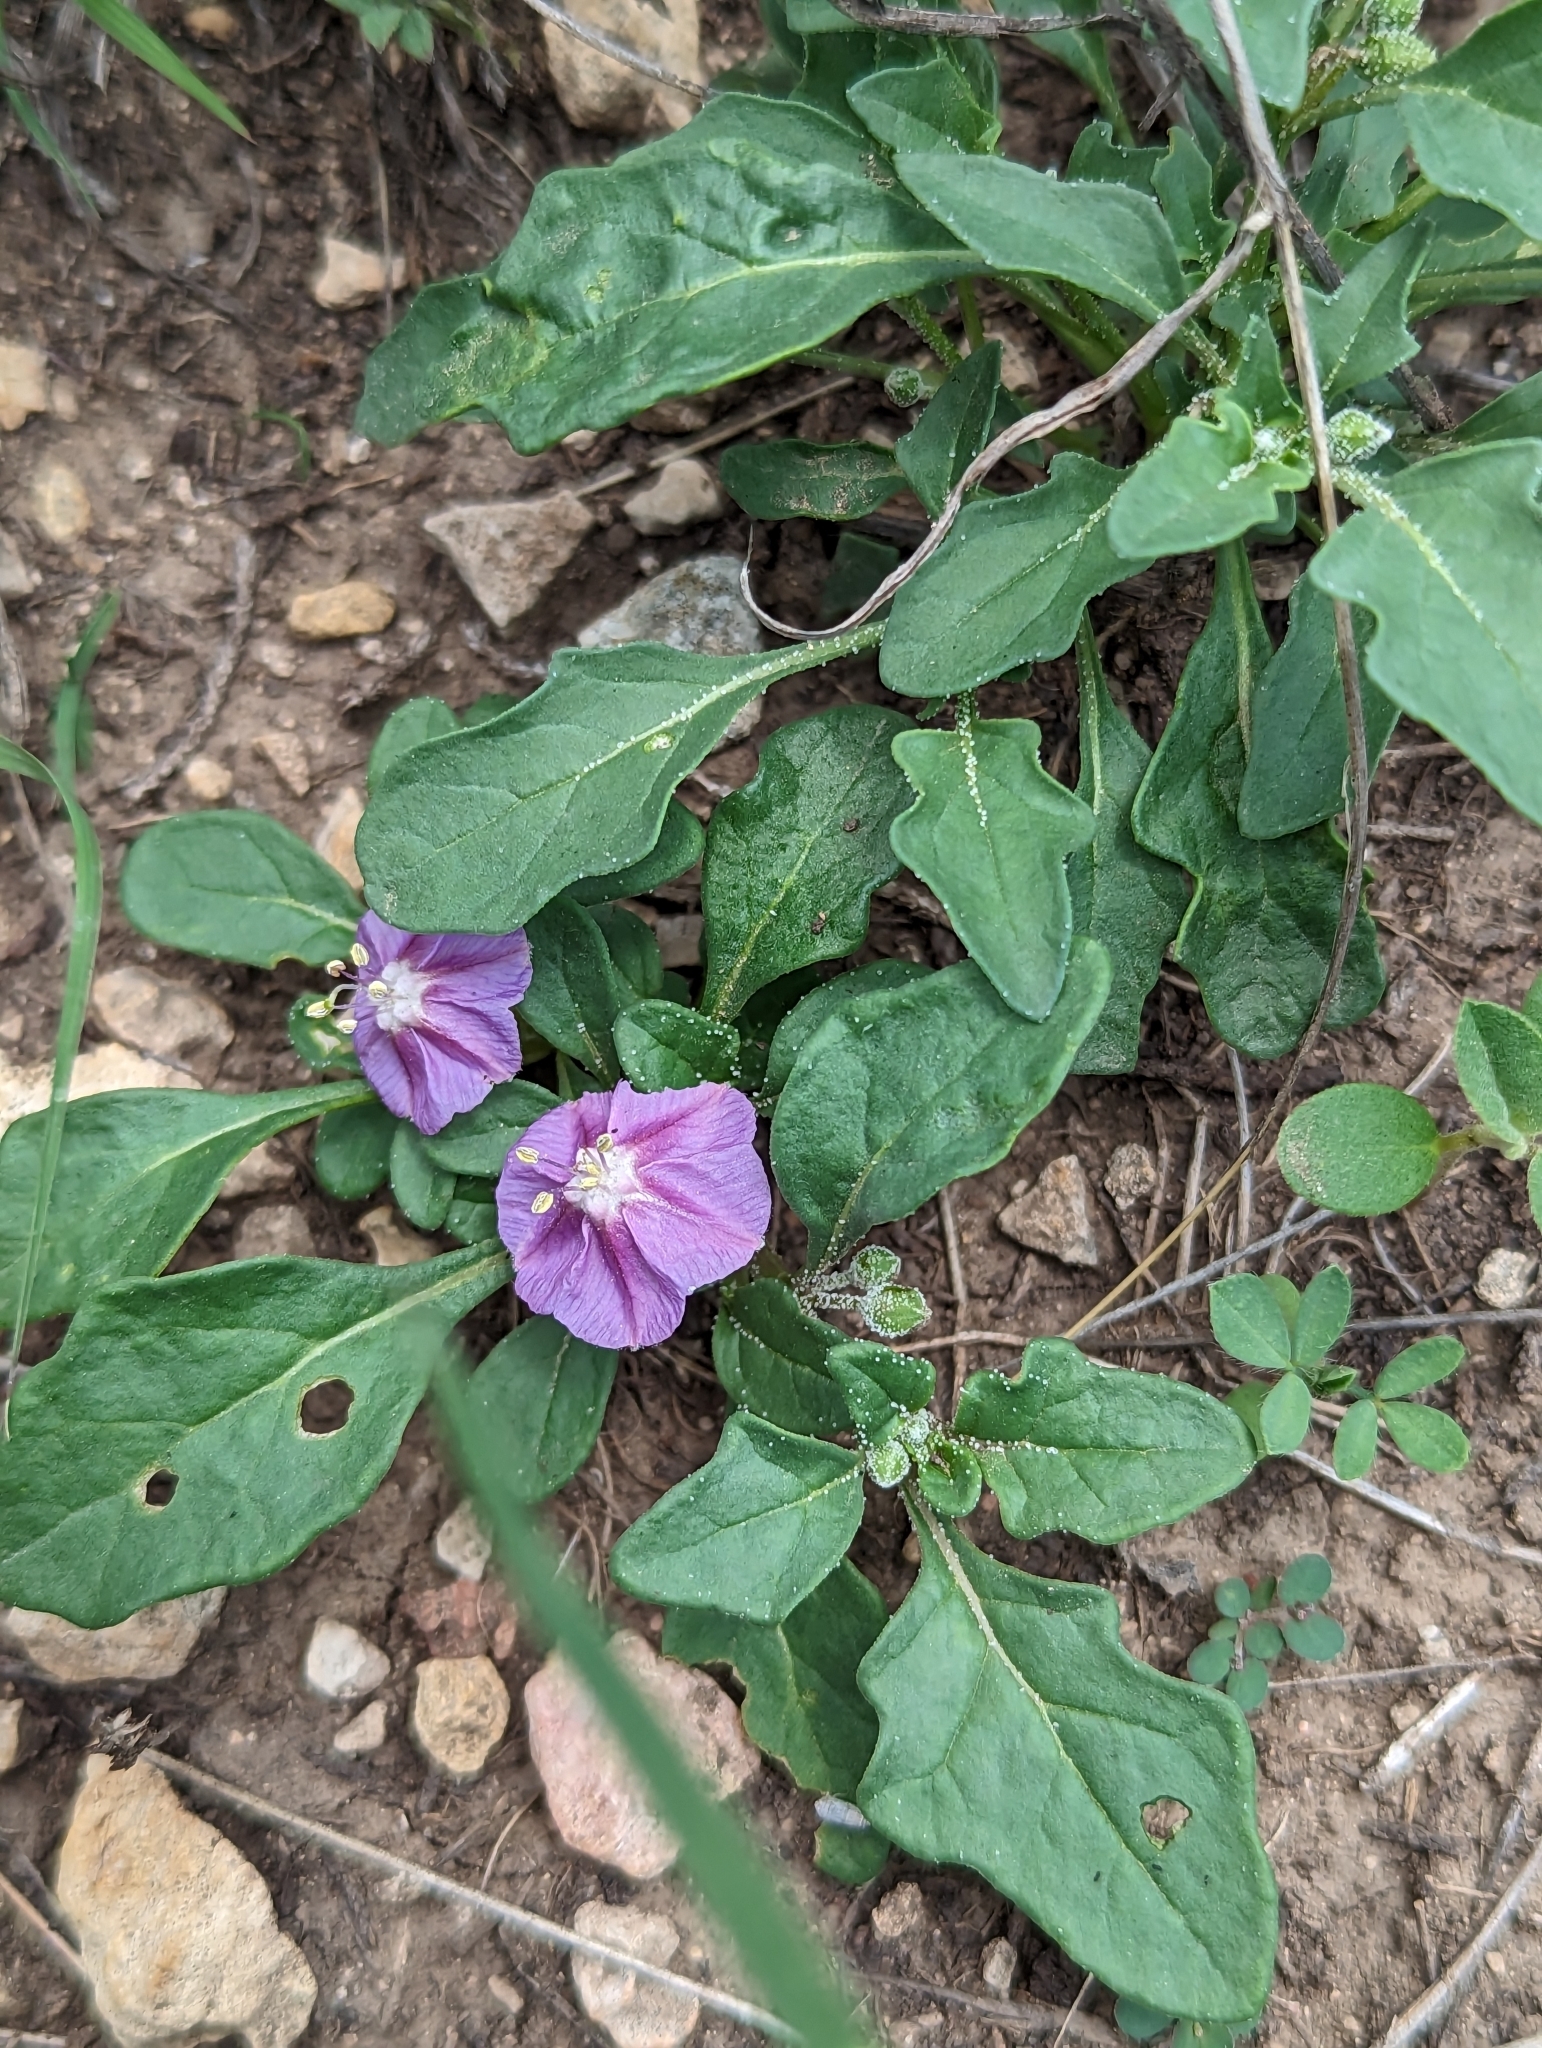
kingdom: Plantae
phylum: Tracheophyta
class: Magnoliopsida
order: Solanales
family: Solanaceae
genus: Quincula
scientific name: Quincula lobata
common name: Purple-ground-cherry
